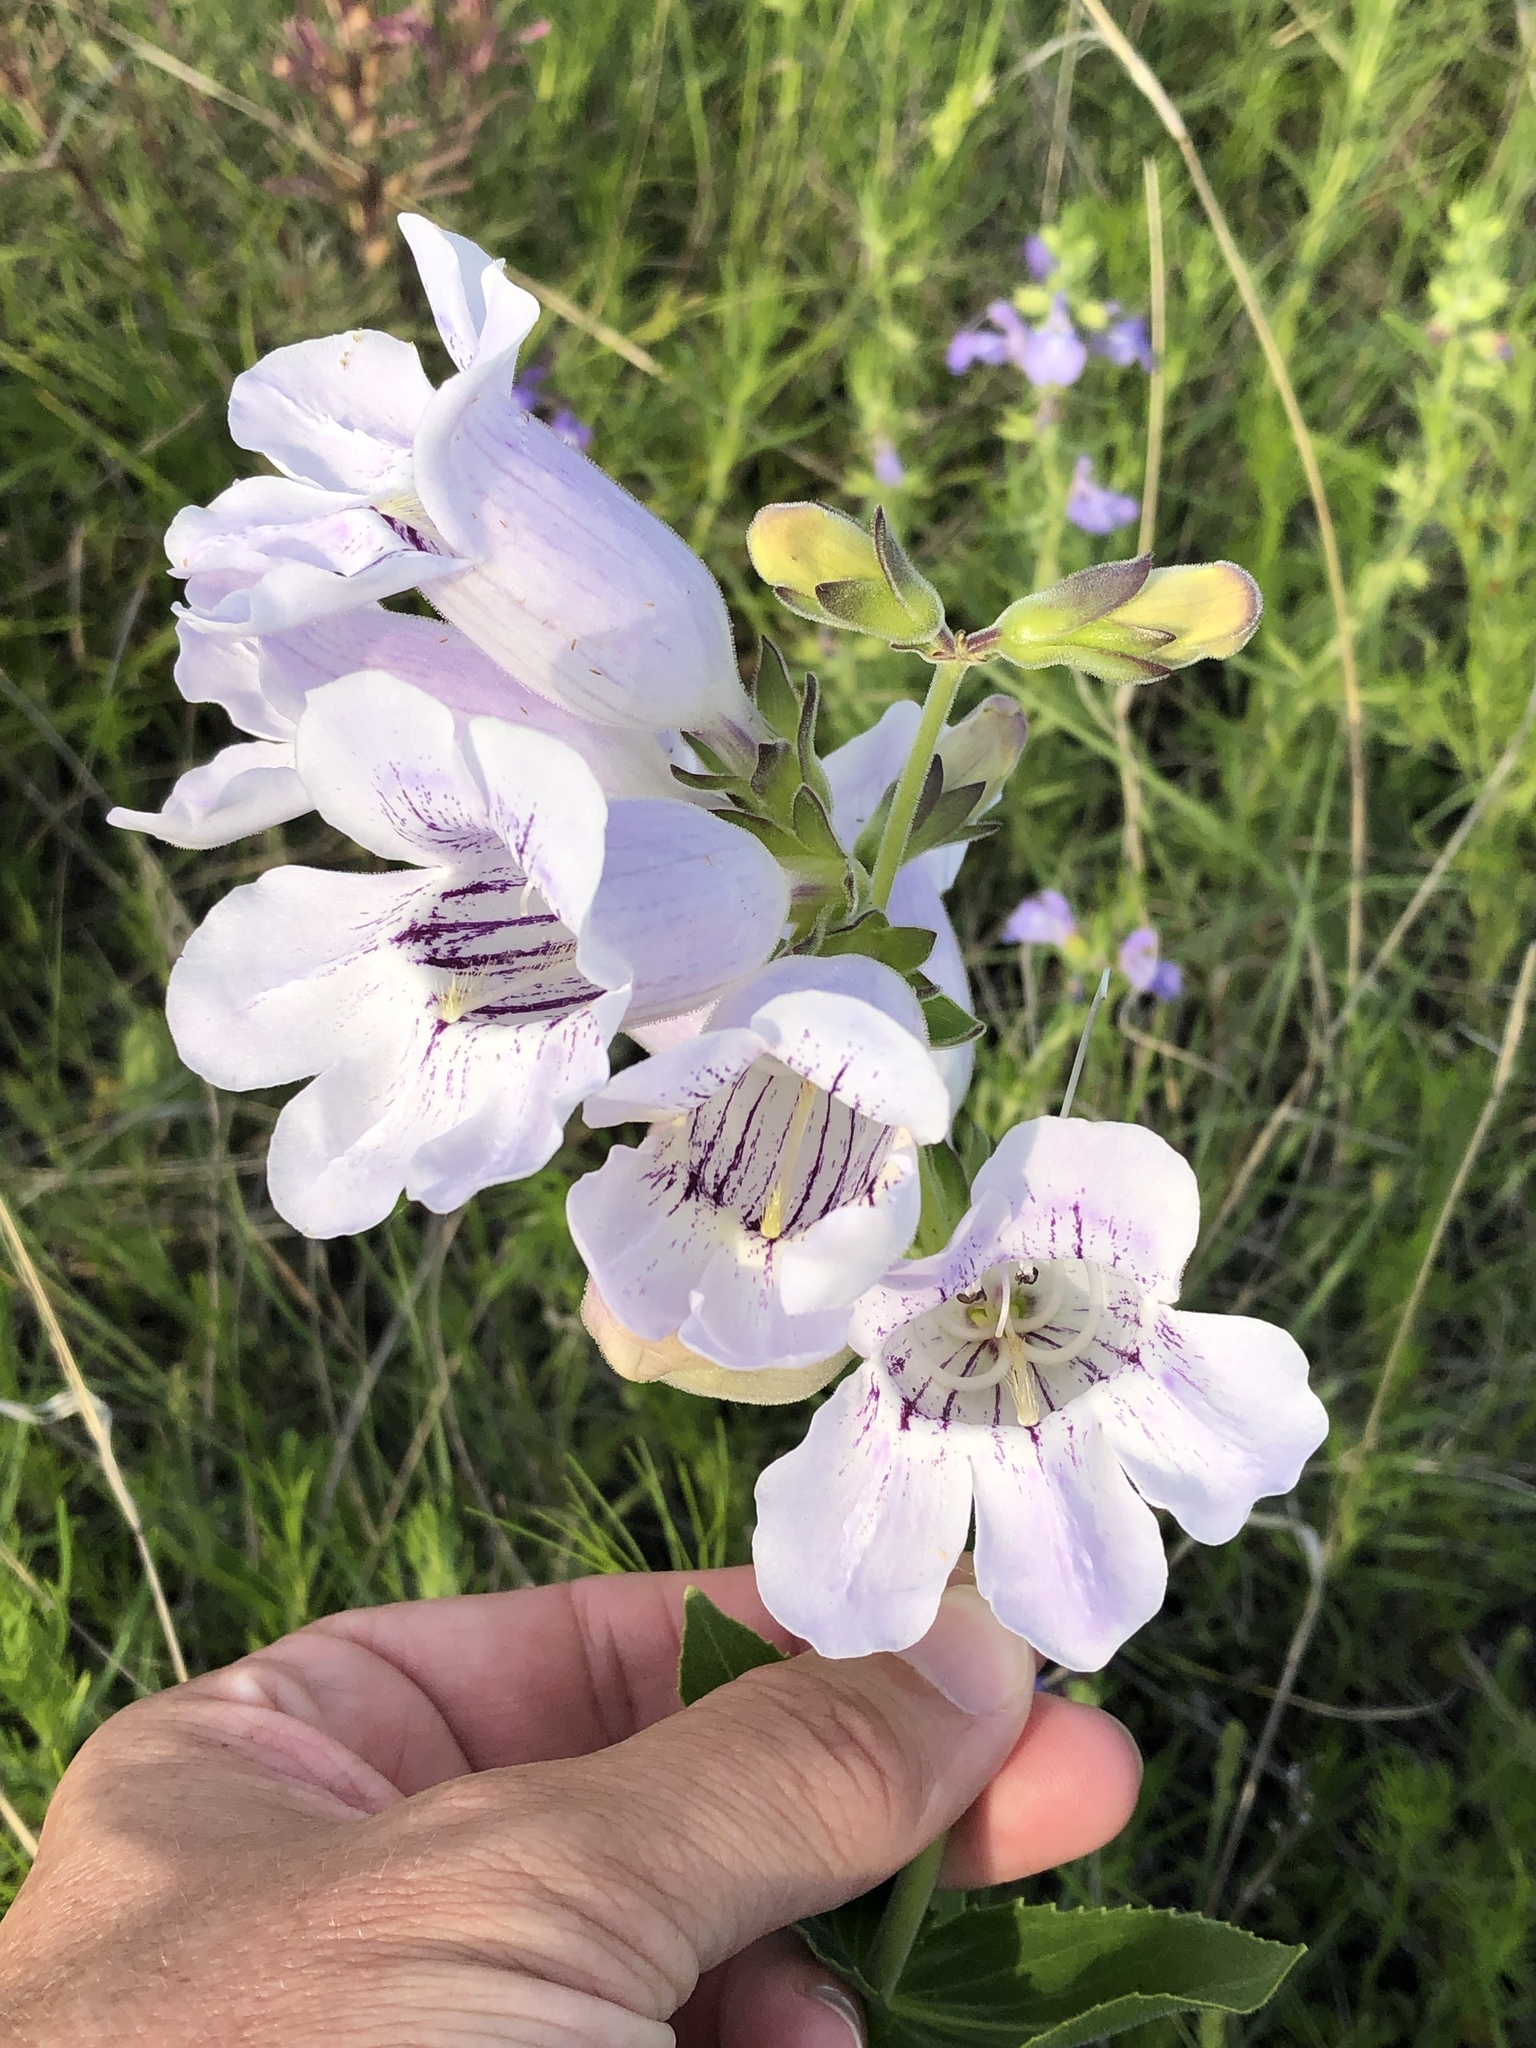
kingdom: Plantae
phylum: Tracheophyta
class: Magnoliopsida
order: Lamiales
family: Plantaginaceae
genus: Penstemon
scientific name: Penstemon cobaea
